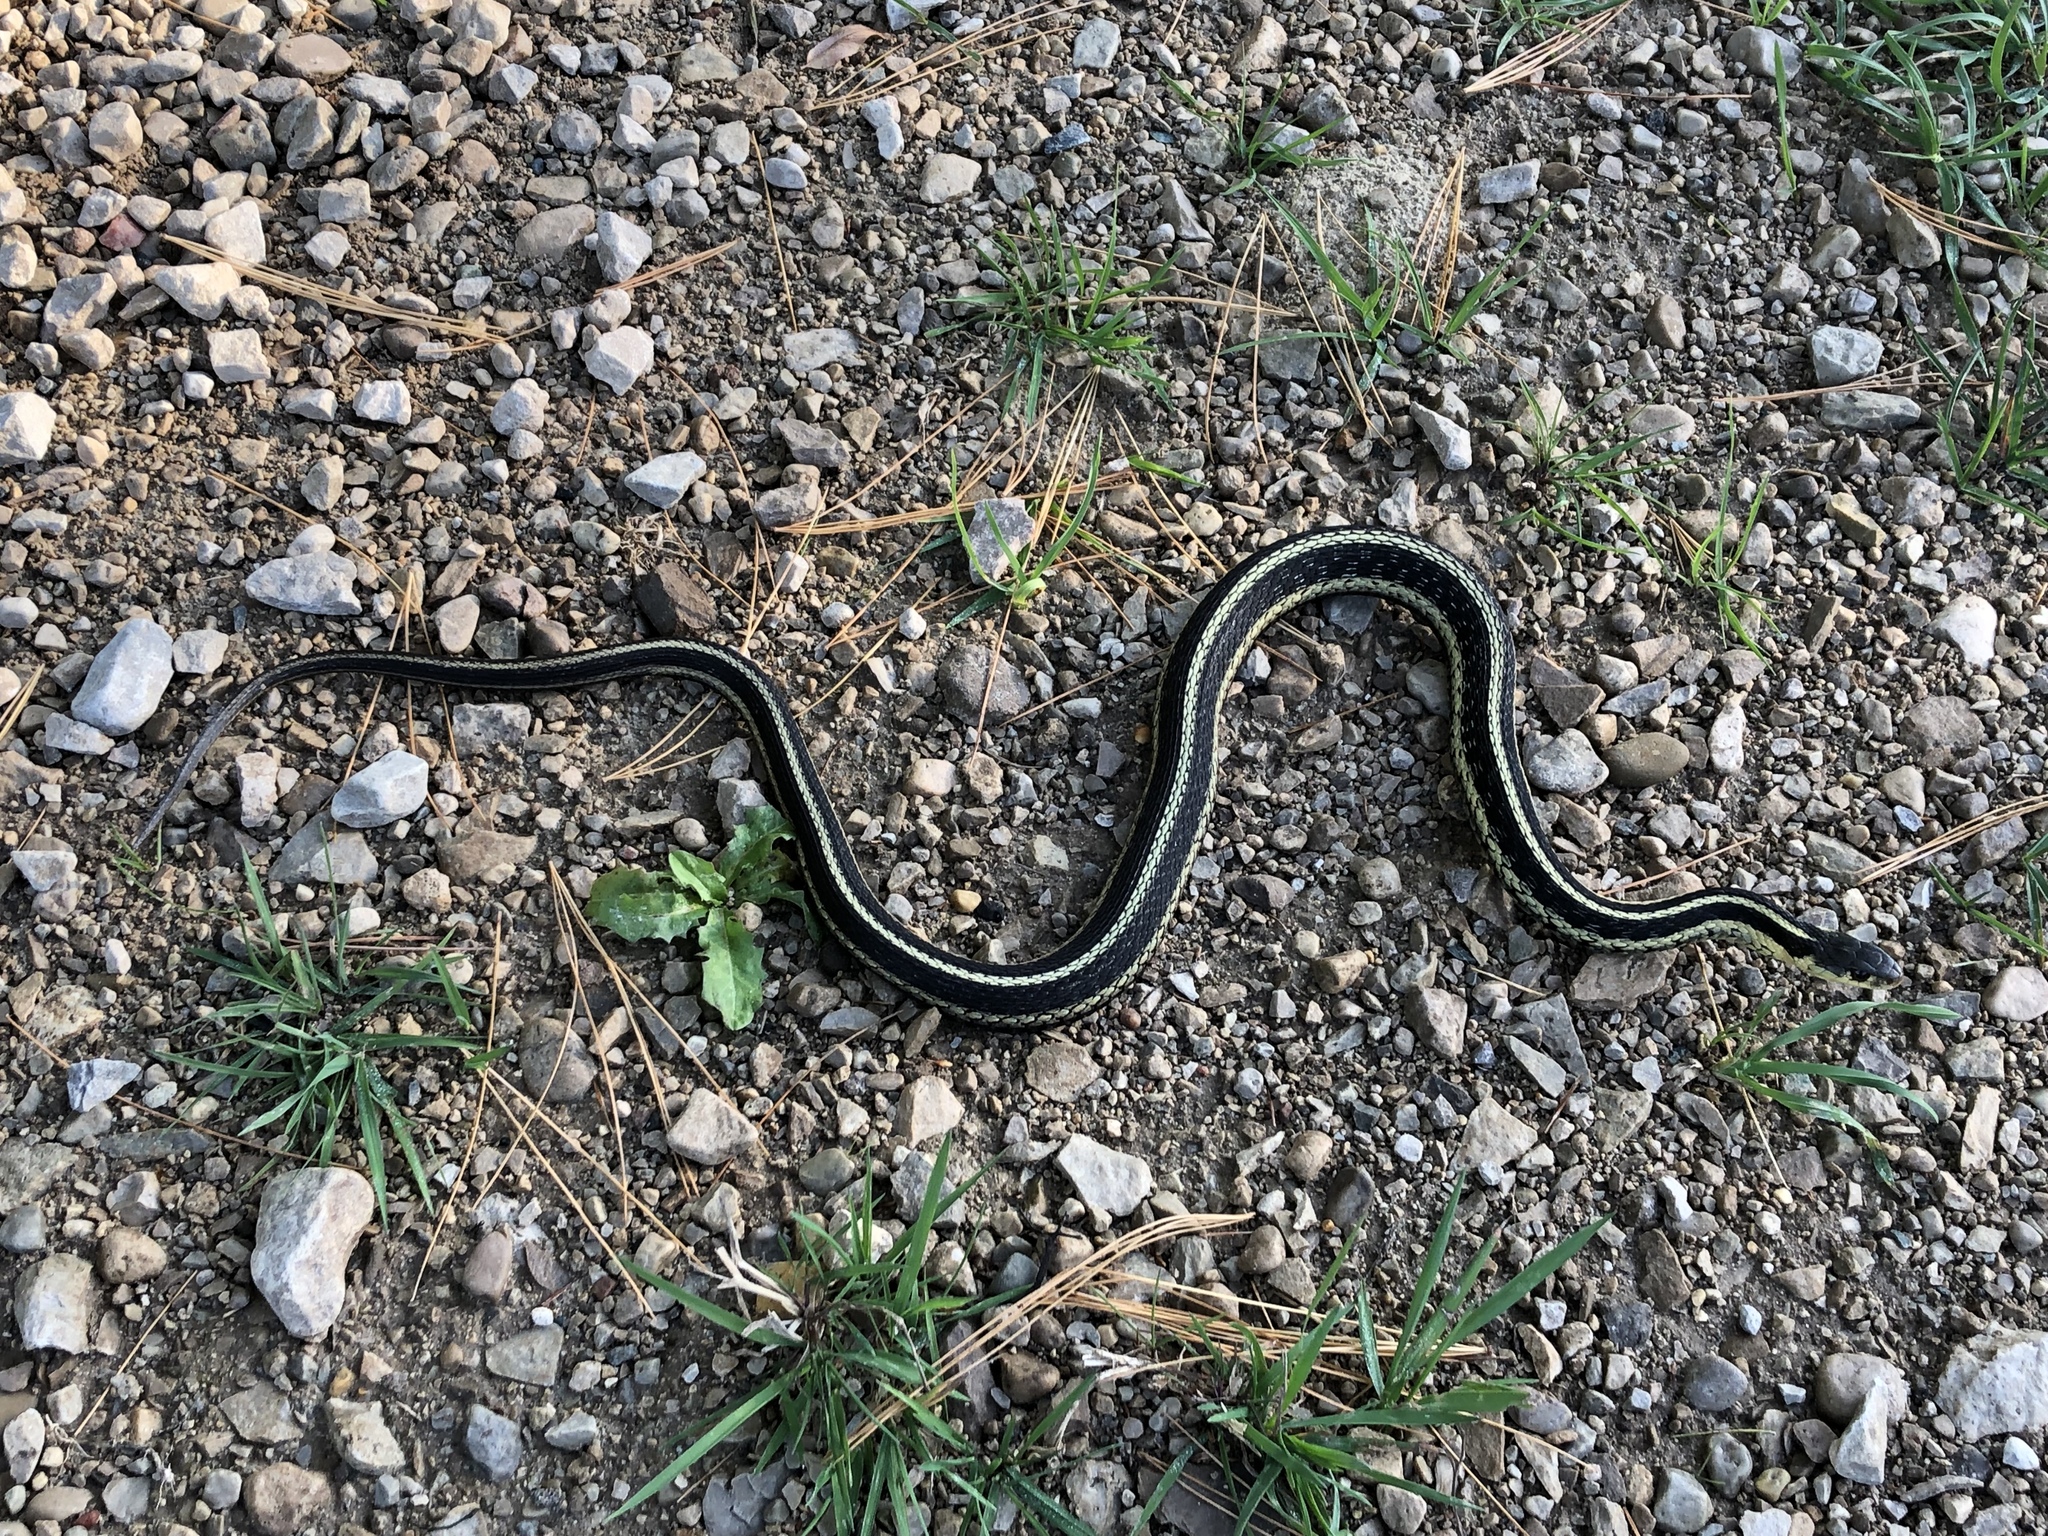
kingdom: Animalia
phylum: Chordata
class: Squamata
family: Colubridae
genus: Thamnophis
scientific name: Thamnophis sirtalis
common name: Common garter snake
